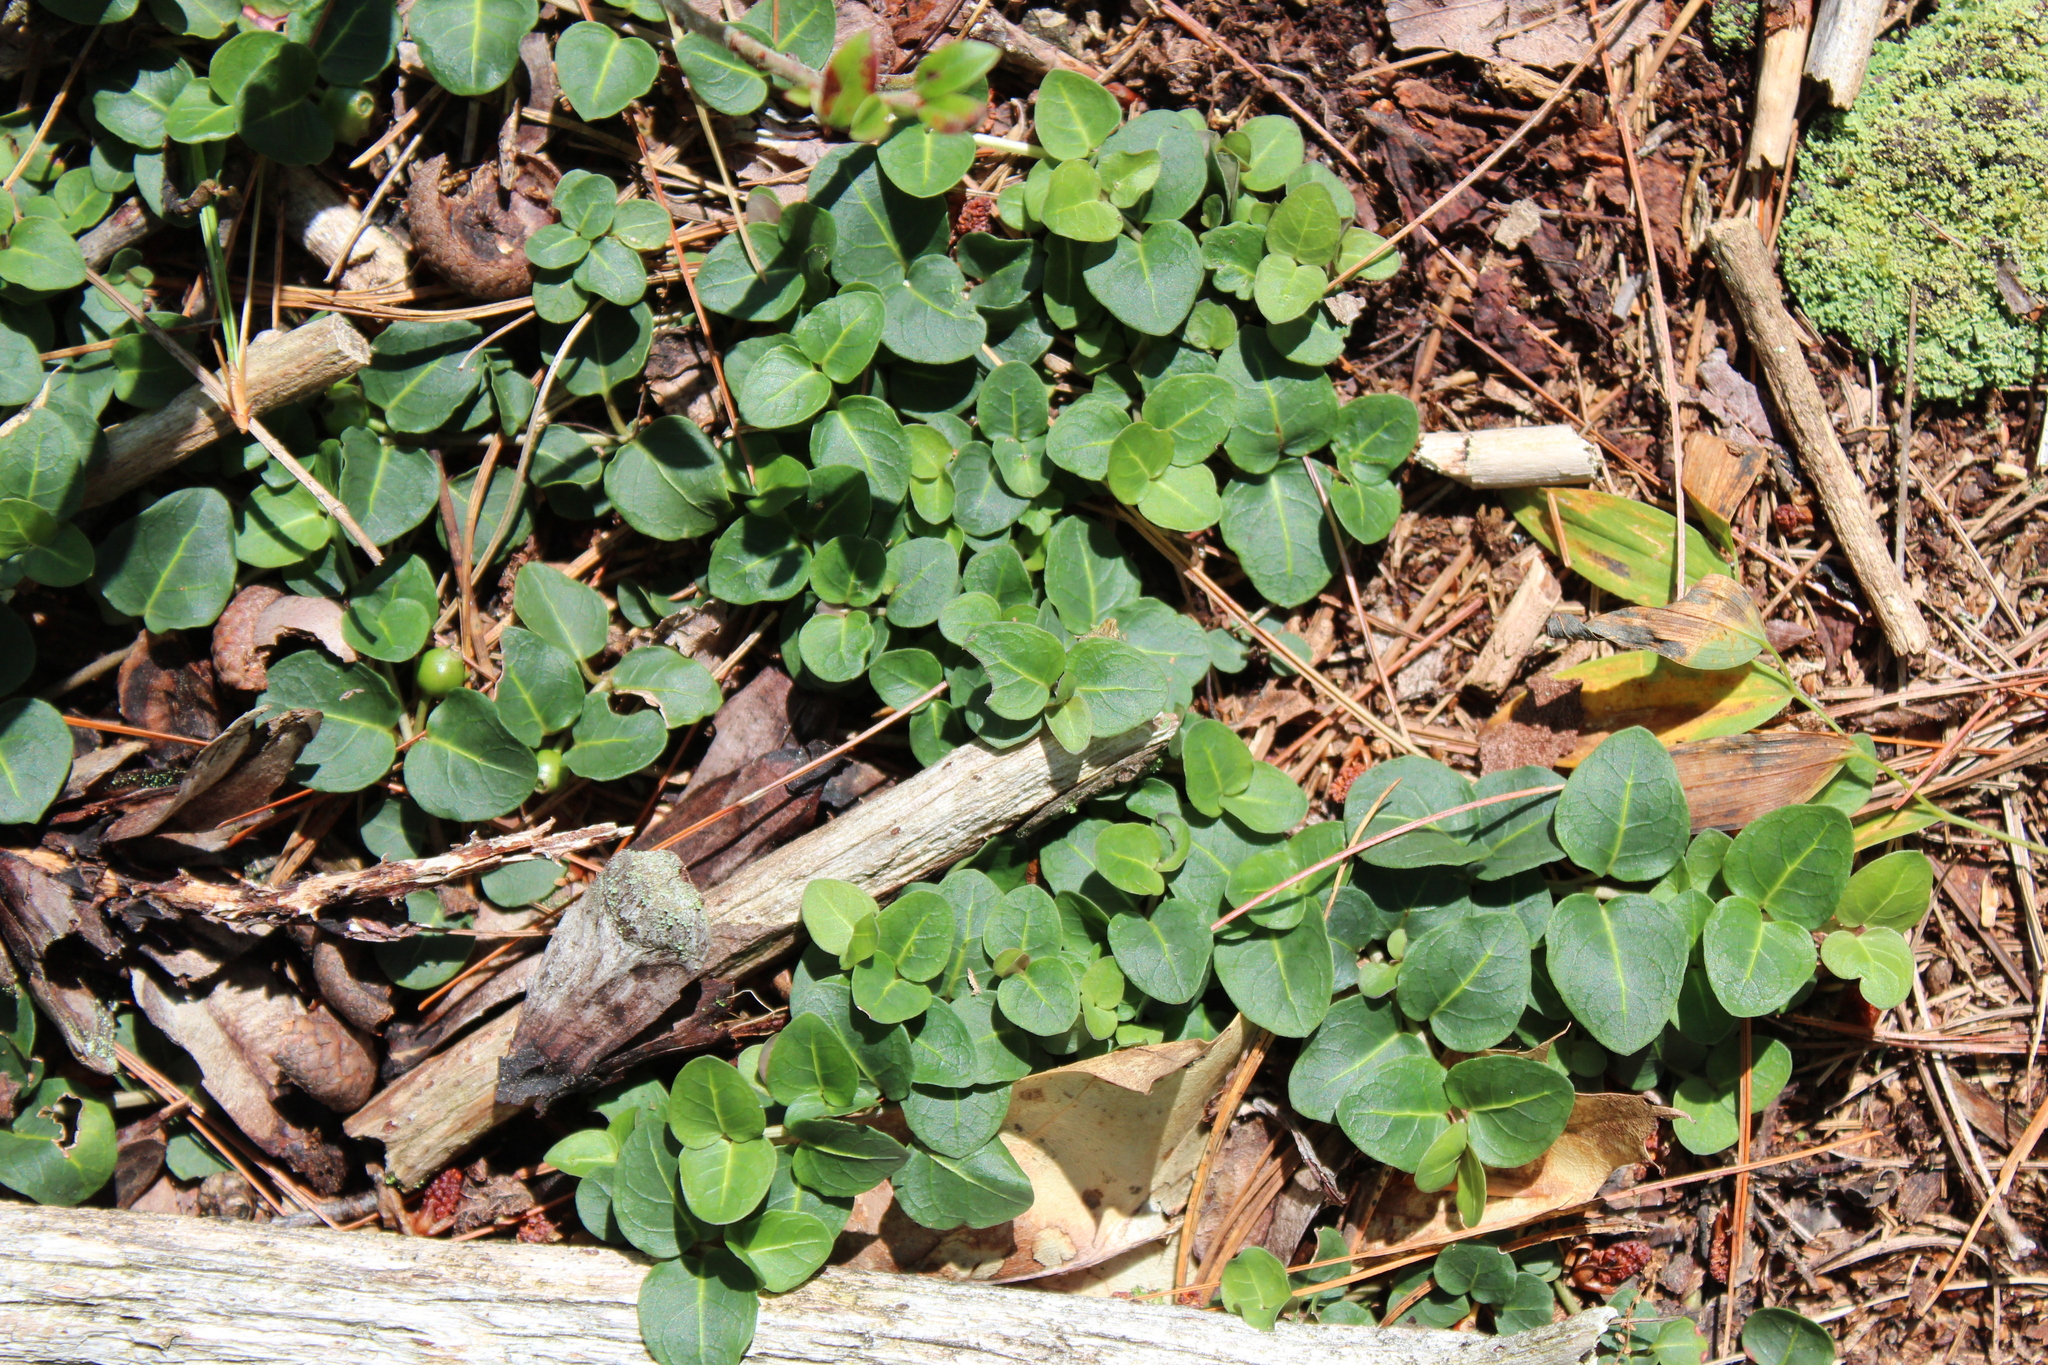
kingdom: Plantae
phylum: Tracheophyta
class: Magnoliopsida
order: Gentianales
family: Rubiaceae
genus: Mitchella
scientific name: Mitchella repens
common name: Partridge-berry
